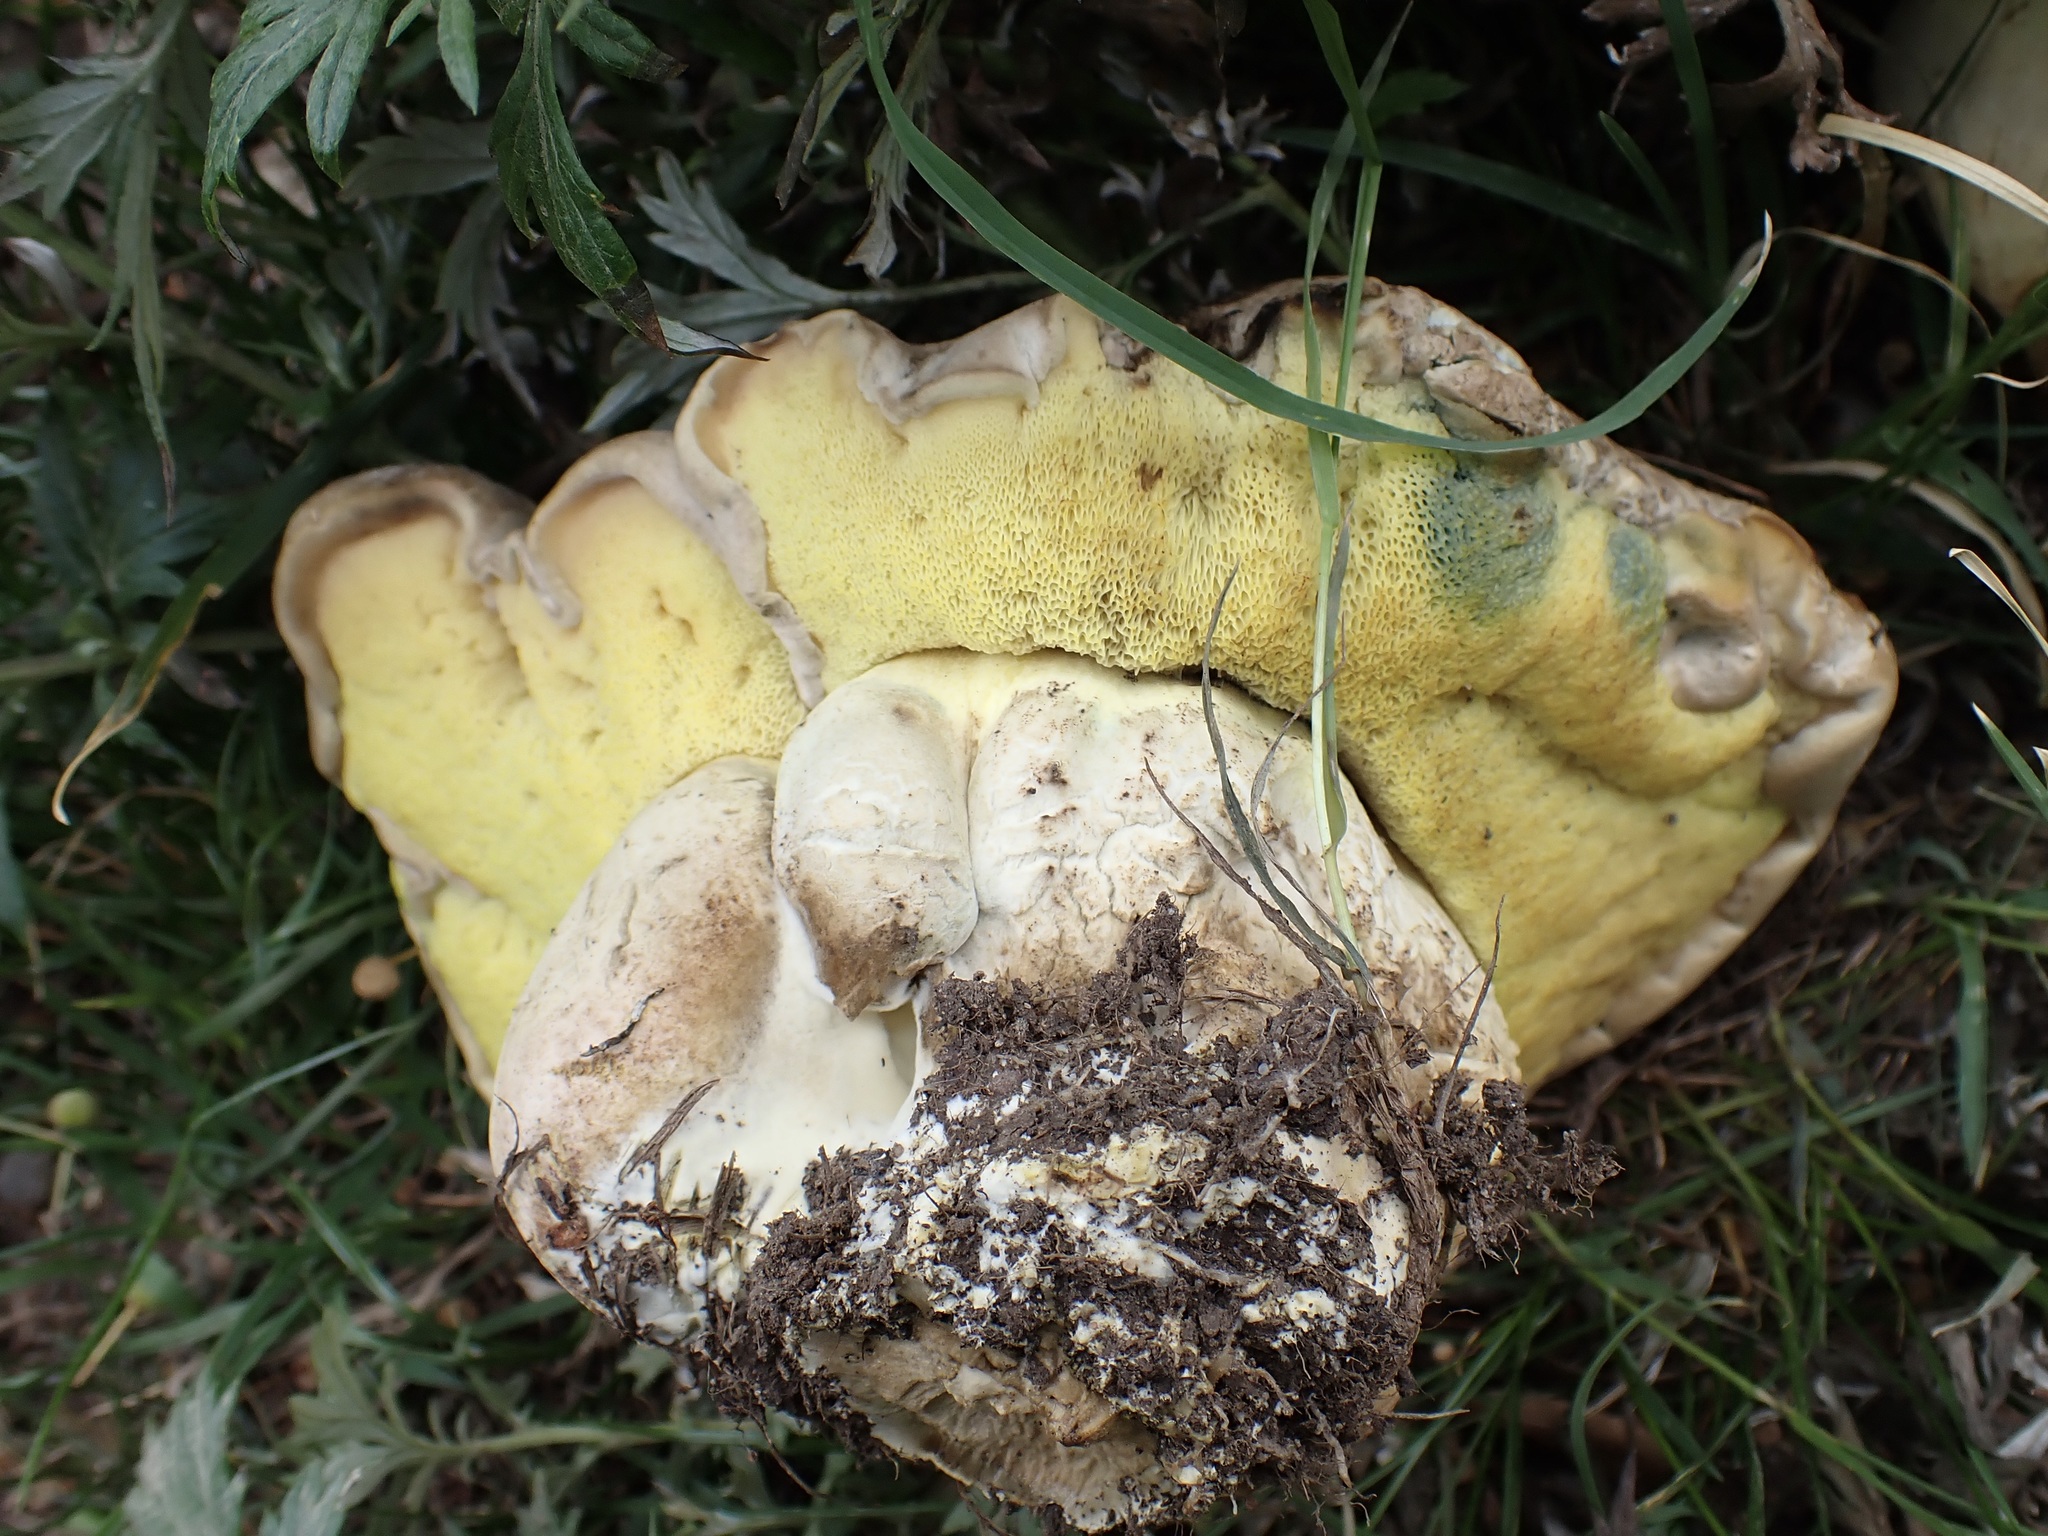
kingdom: Fungi
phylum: Basidiomycota
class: Agaricomycetes
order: Boletales
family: Boletaceae
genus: Caloboletus
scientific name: Caloboletus radicans
